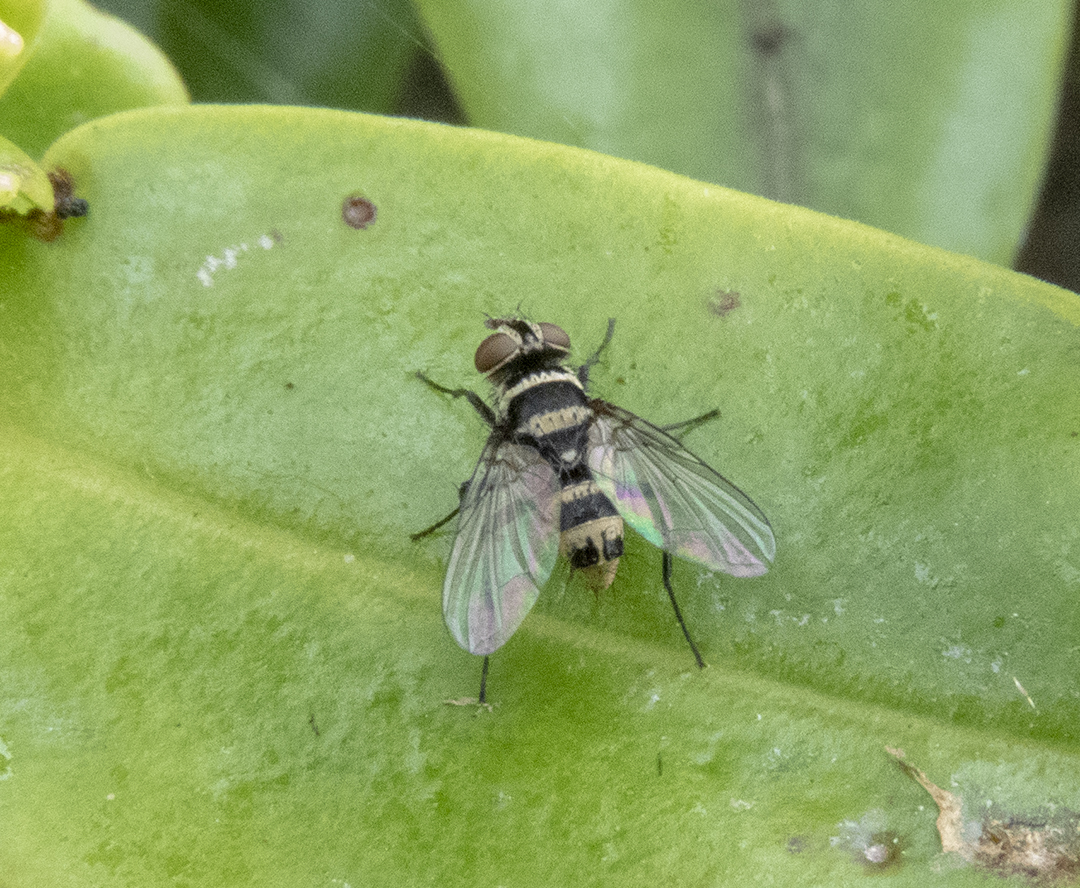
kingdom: Animalia
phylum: Arthropoda
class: Insecta
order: Diptera
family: Tachinidae
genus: Trigonospila
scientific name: Trigonospila brevifacies
